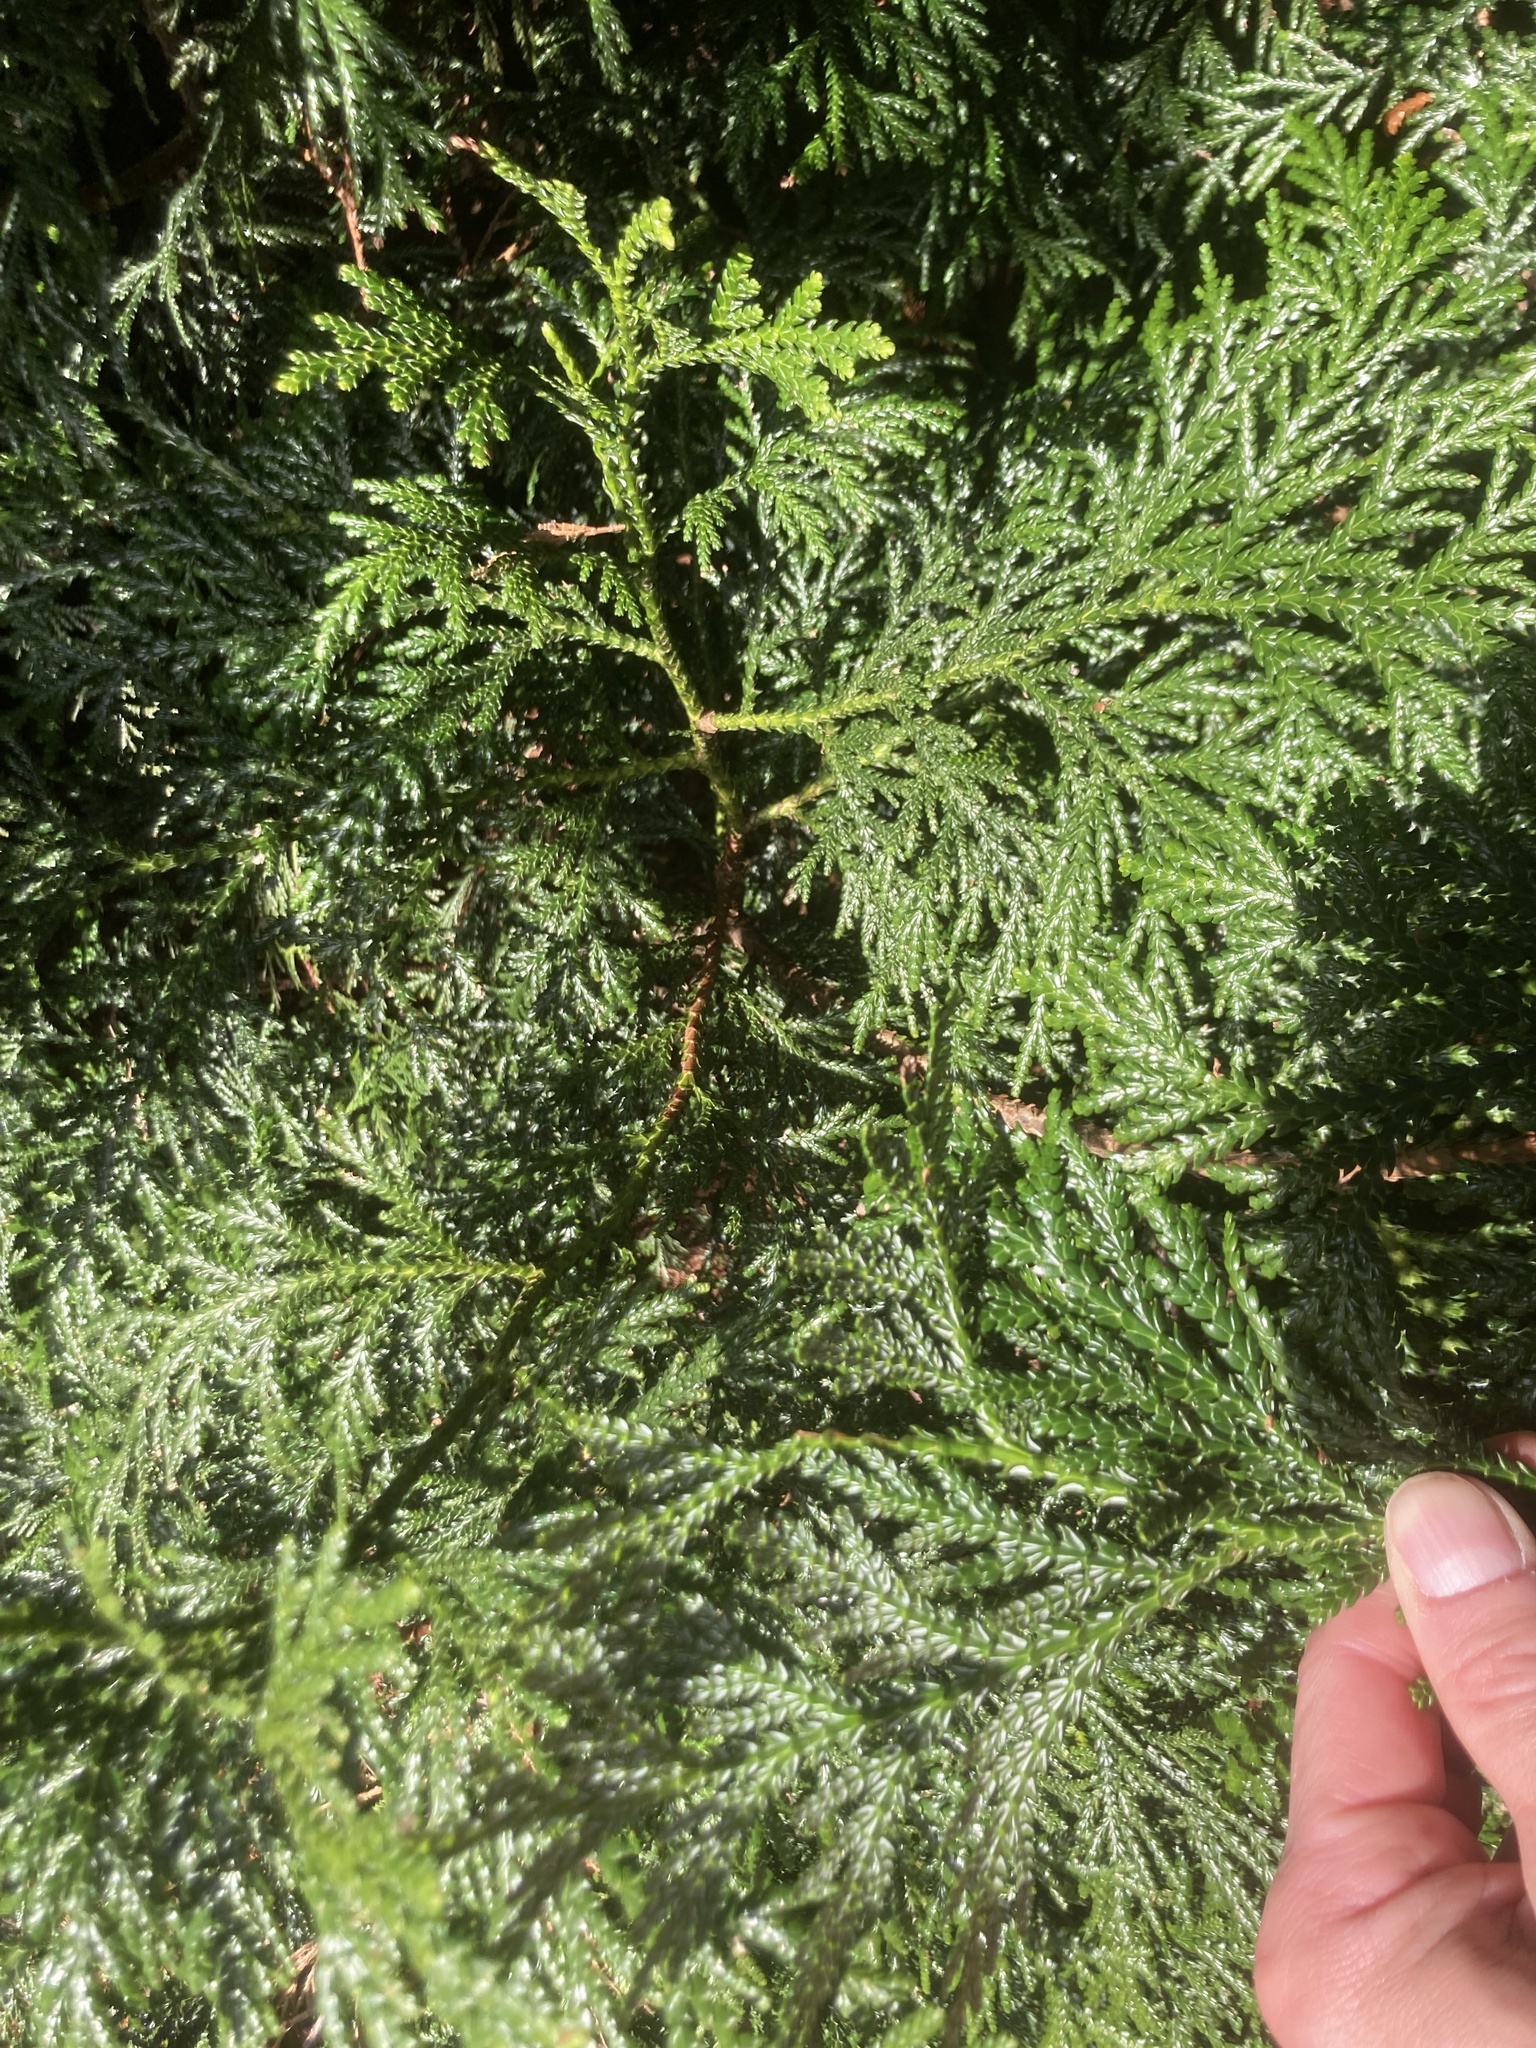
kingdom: Plantae
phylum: Tracheophyta
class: Pinopsida
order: Pinales
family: Cupressaceae
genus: Thujopsis
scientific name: Thujopsis dolabrata
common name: Hiba
